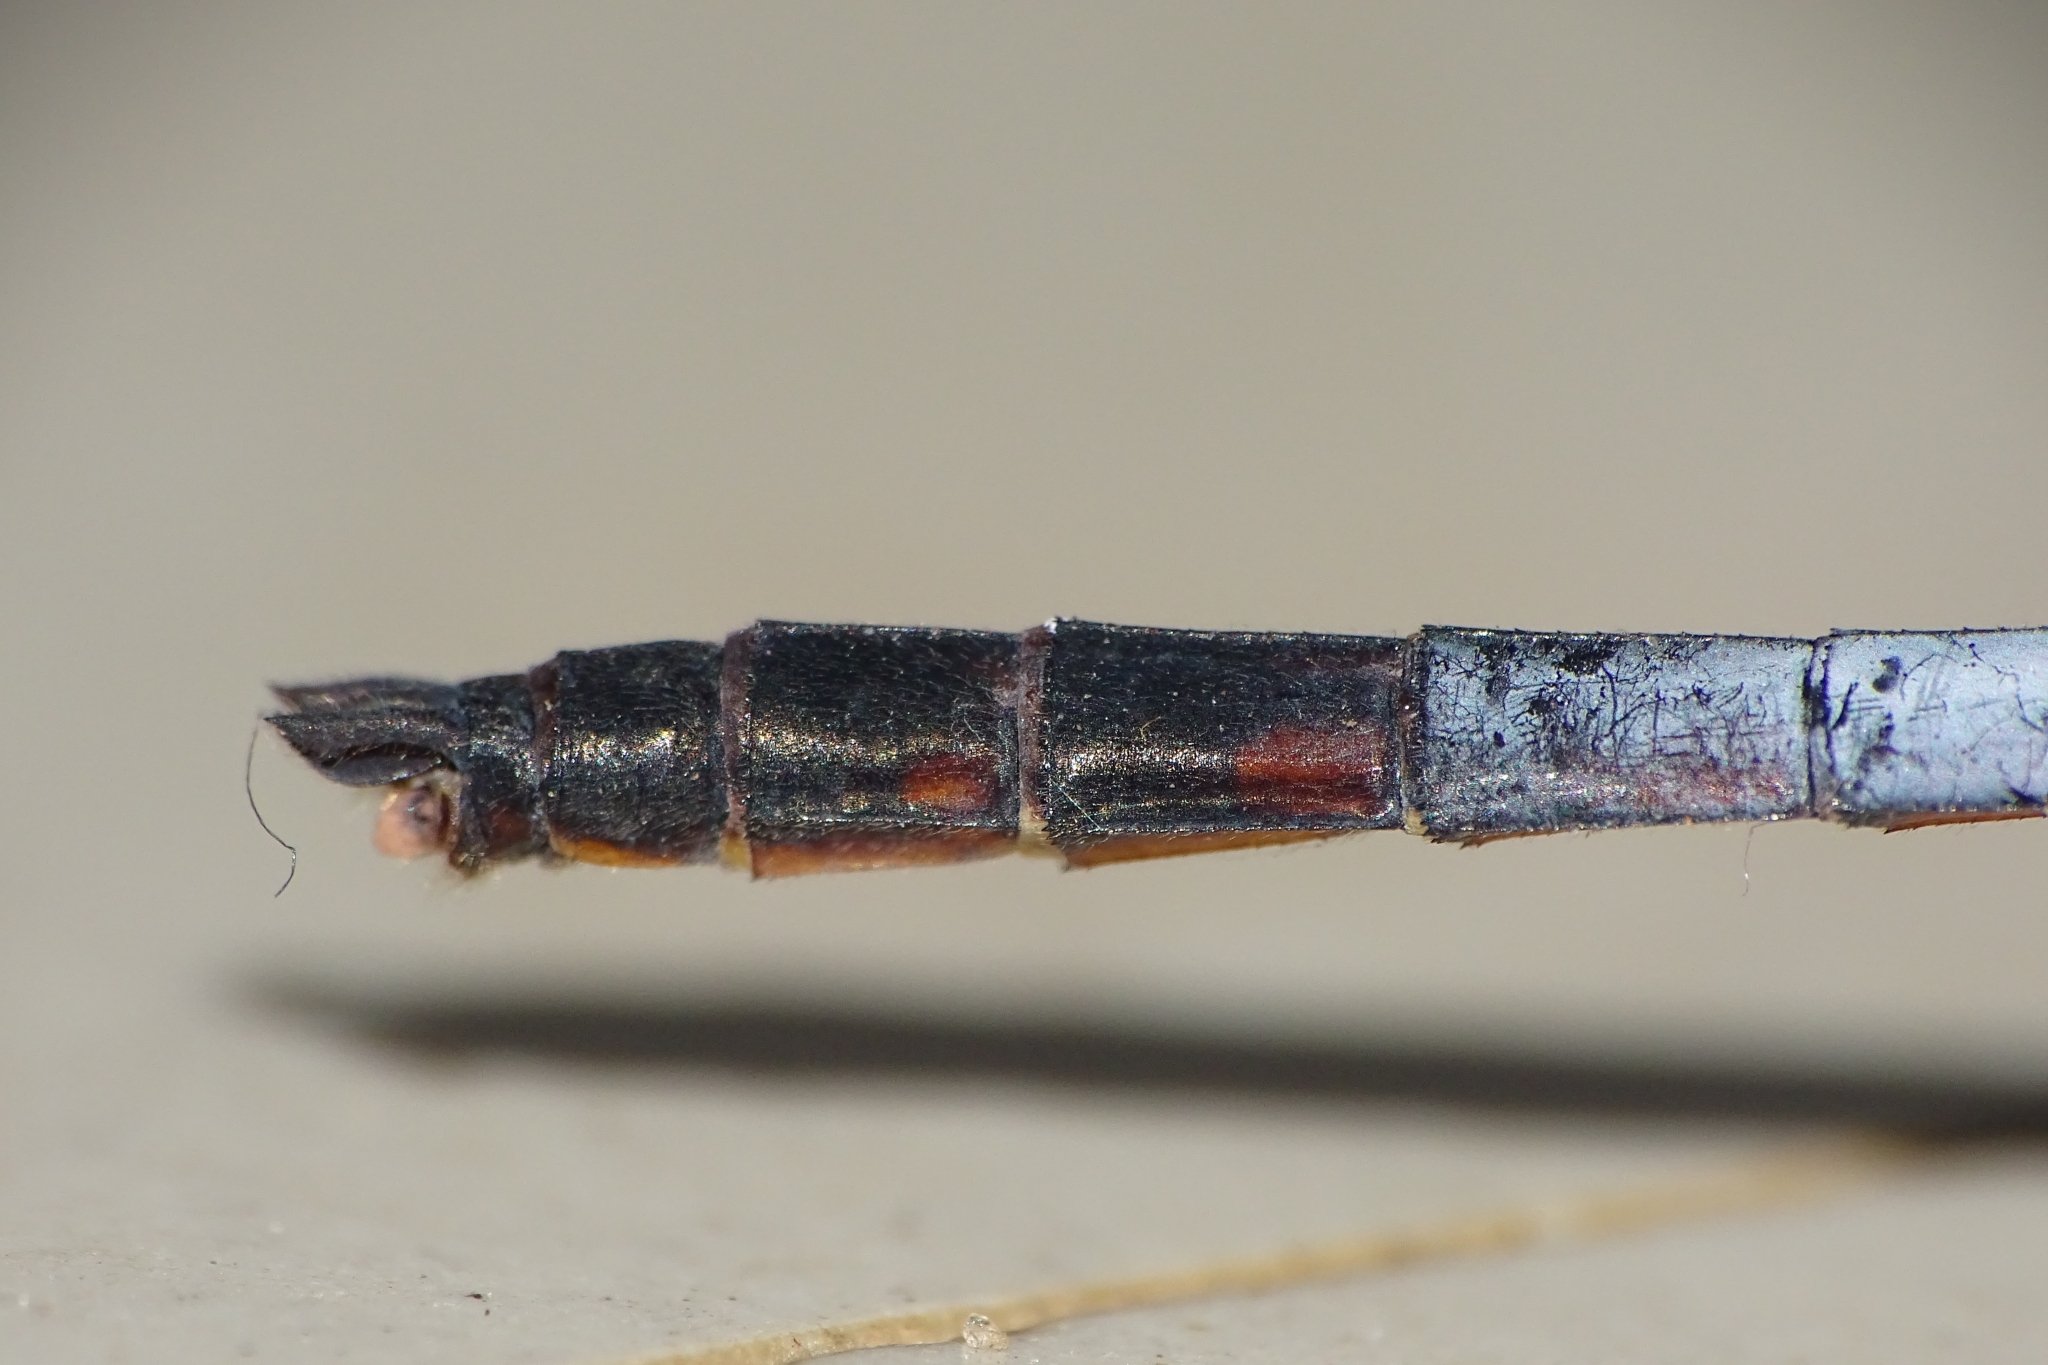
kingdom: Animalia
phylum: Arthropoda
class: Insecta
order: Odonata
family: Libellulidae
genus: Brachydiplax
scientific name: Brachydiplax chalybea
